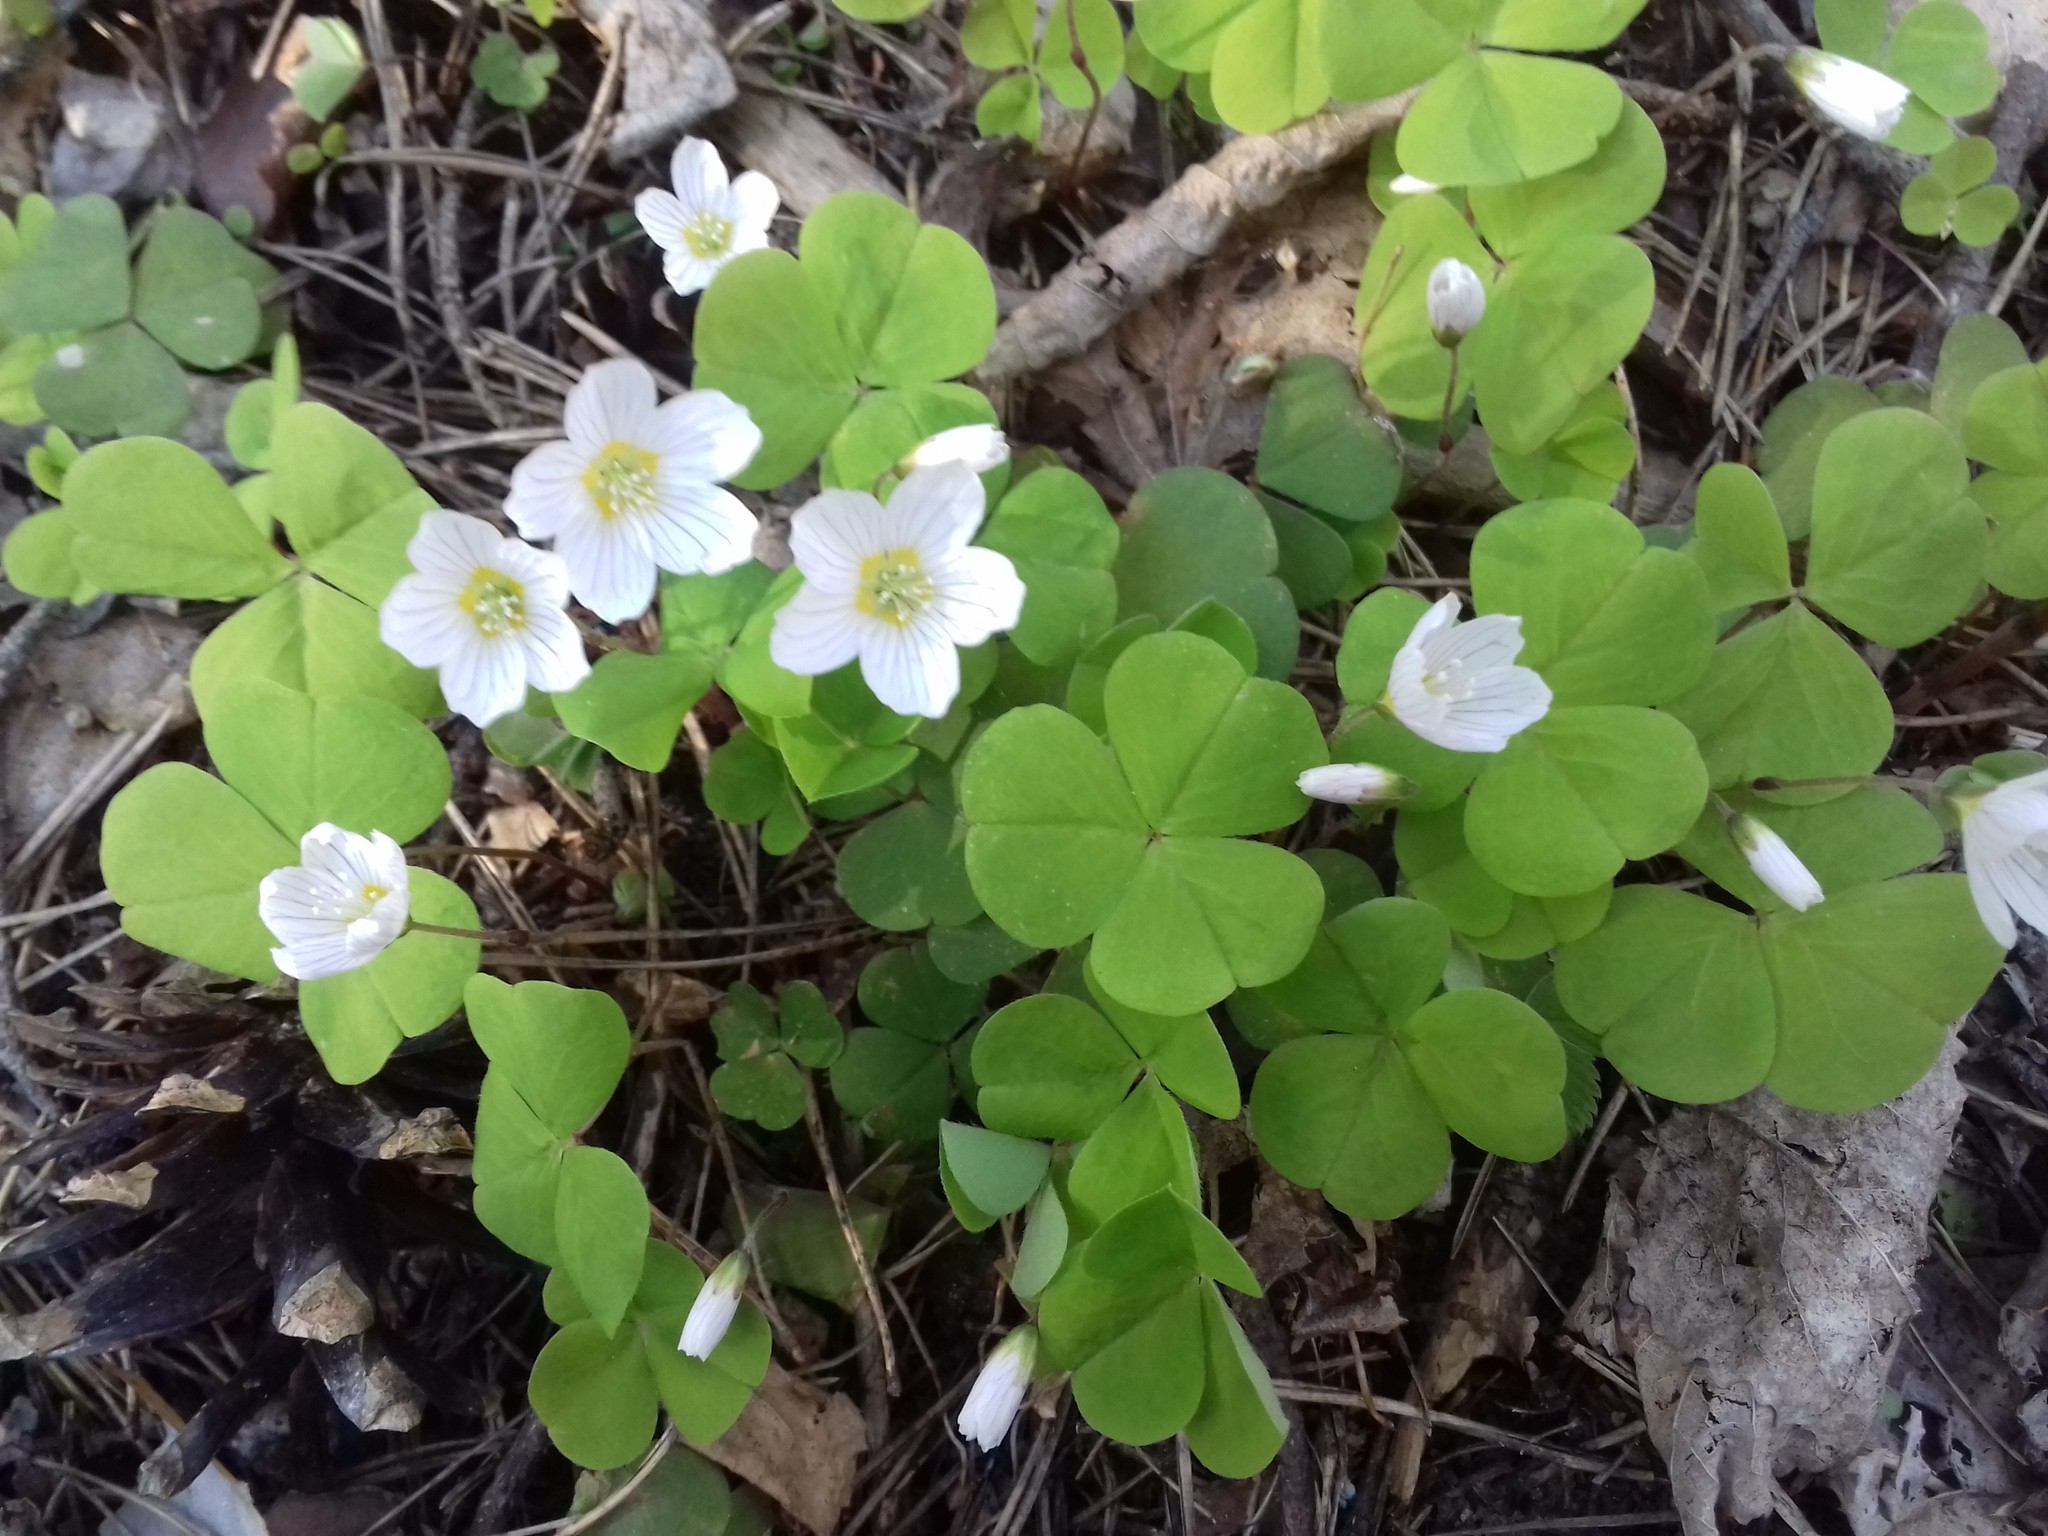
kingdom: Plantae
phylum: Tracheophyta
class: Magnoliopsida
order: Oxalidales
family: Oxalidaceae
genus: Oxalis
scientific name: Oxalis acetosella
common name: Wood-sorrel
